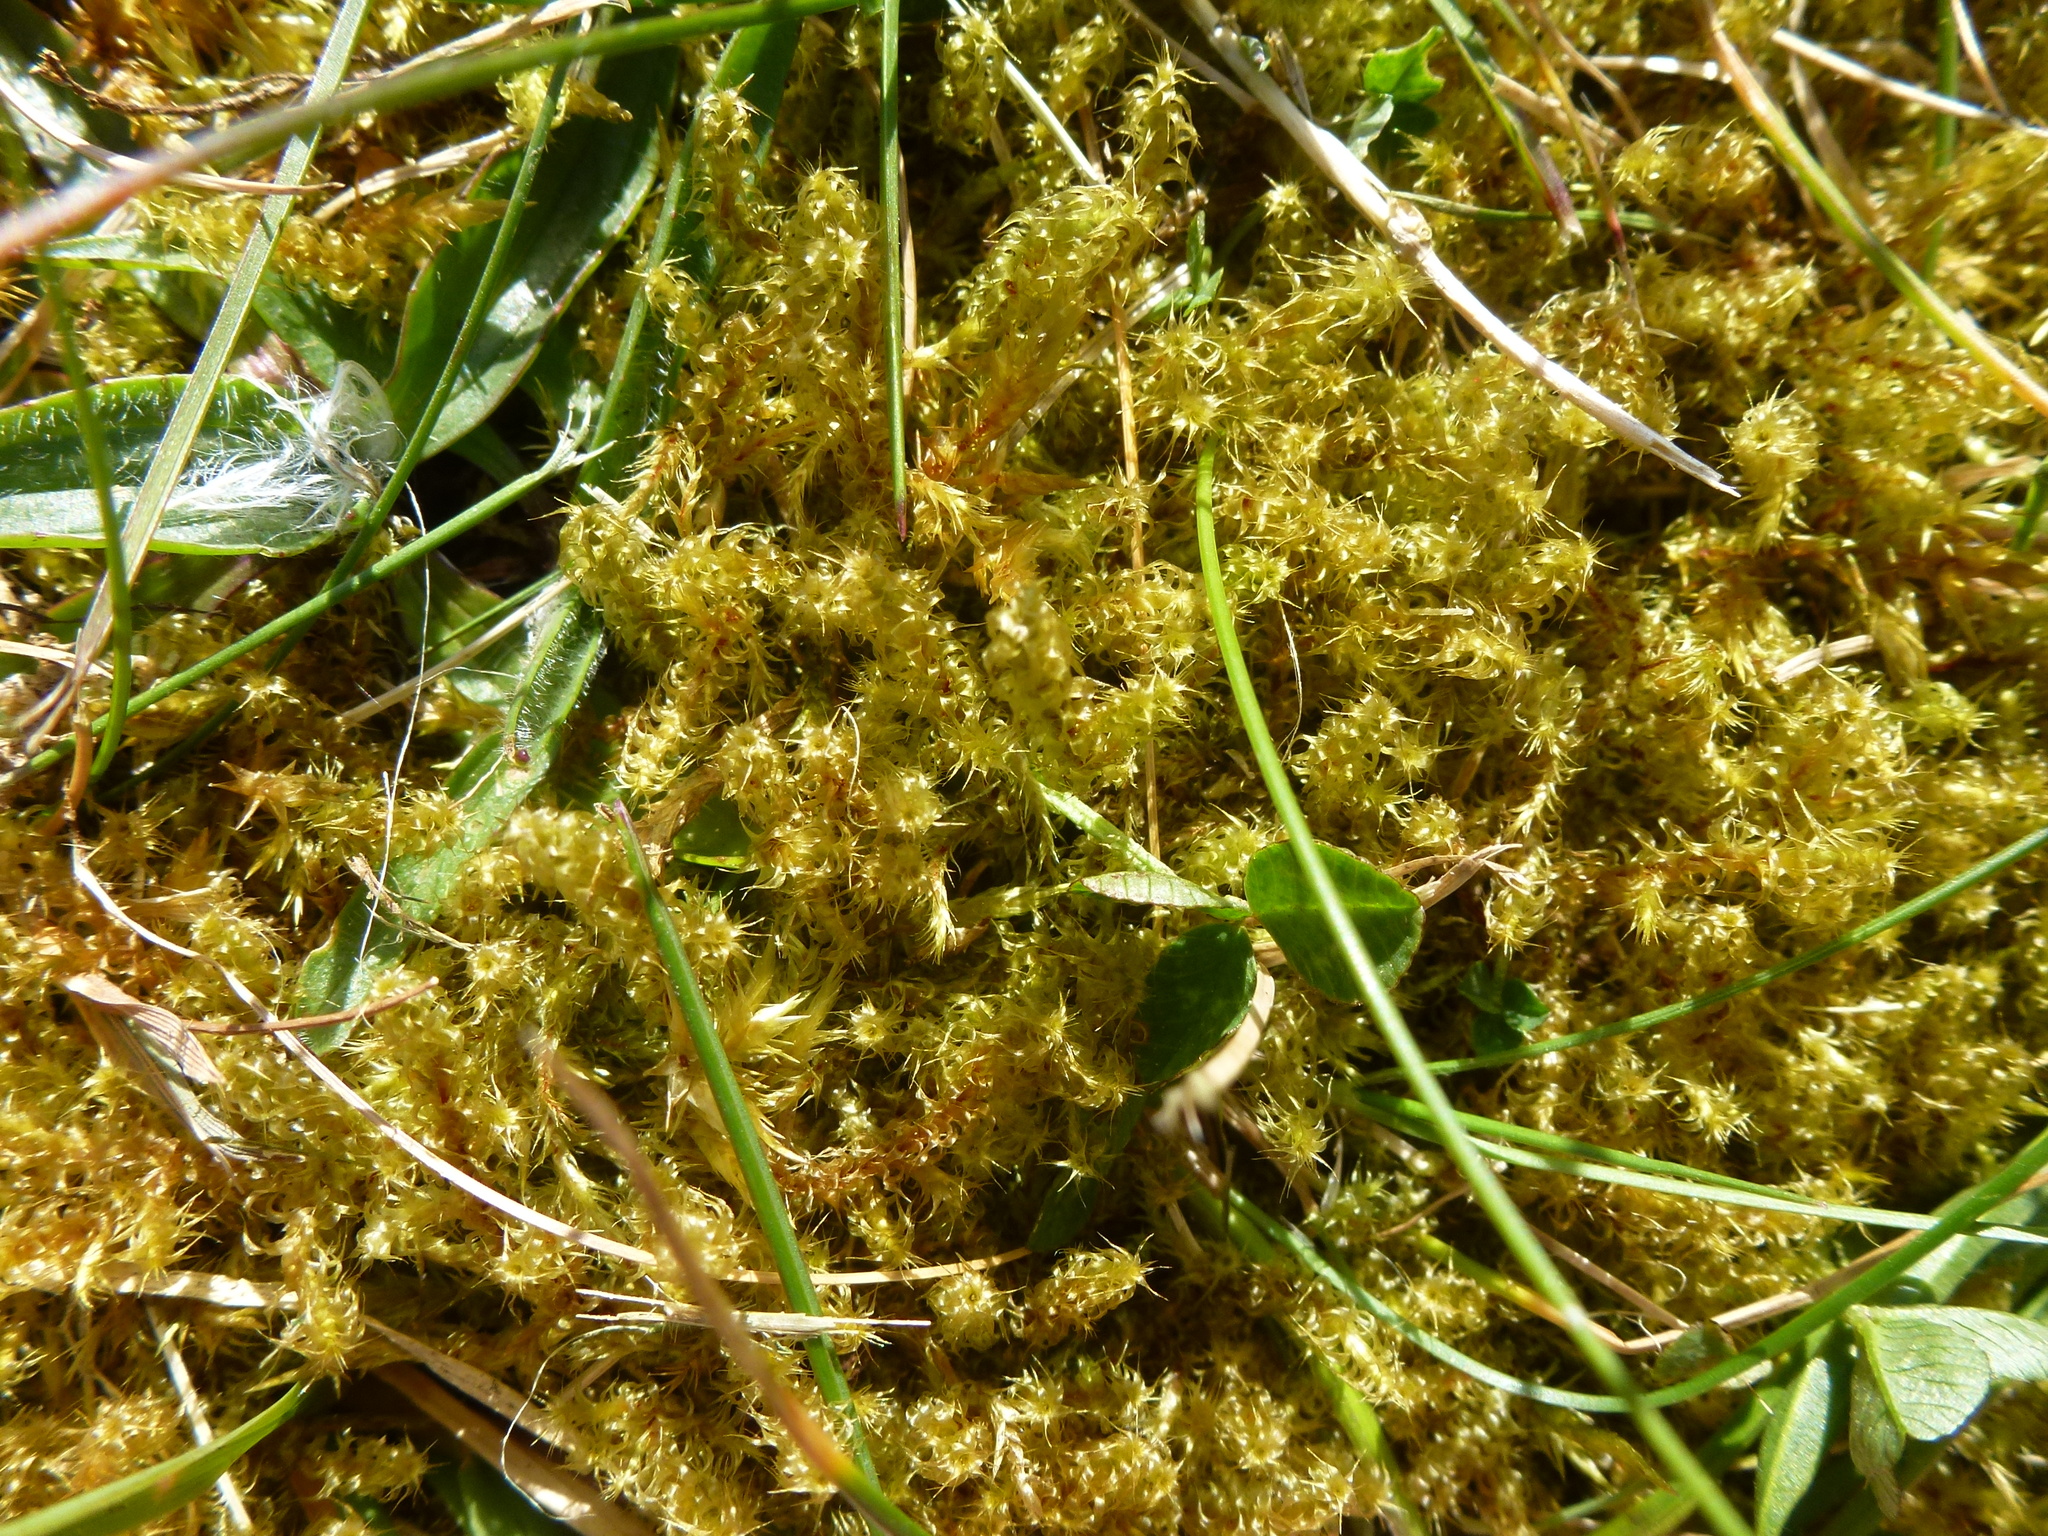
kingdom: Plantae
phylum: Bryophyta
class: Bryopsida
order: Hypnales
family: Hylocomiaceae
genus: Rhytidiadelphus
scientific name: Rhytidiadelphus squarrosus
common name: Springy turf-moss
